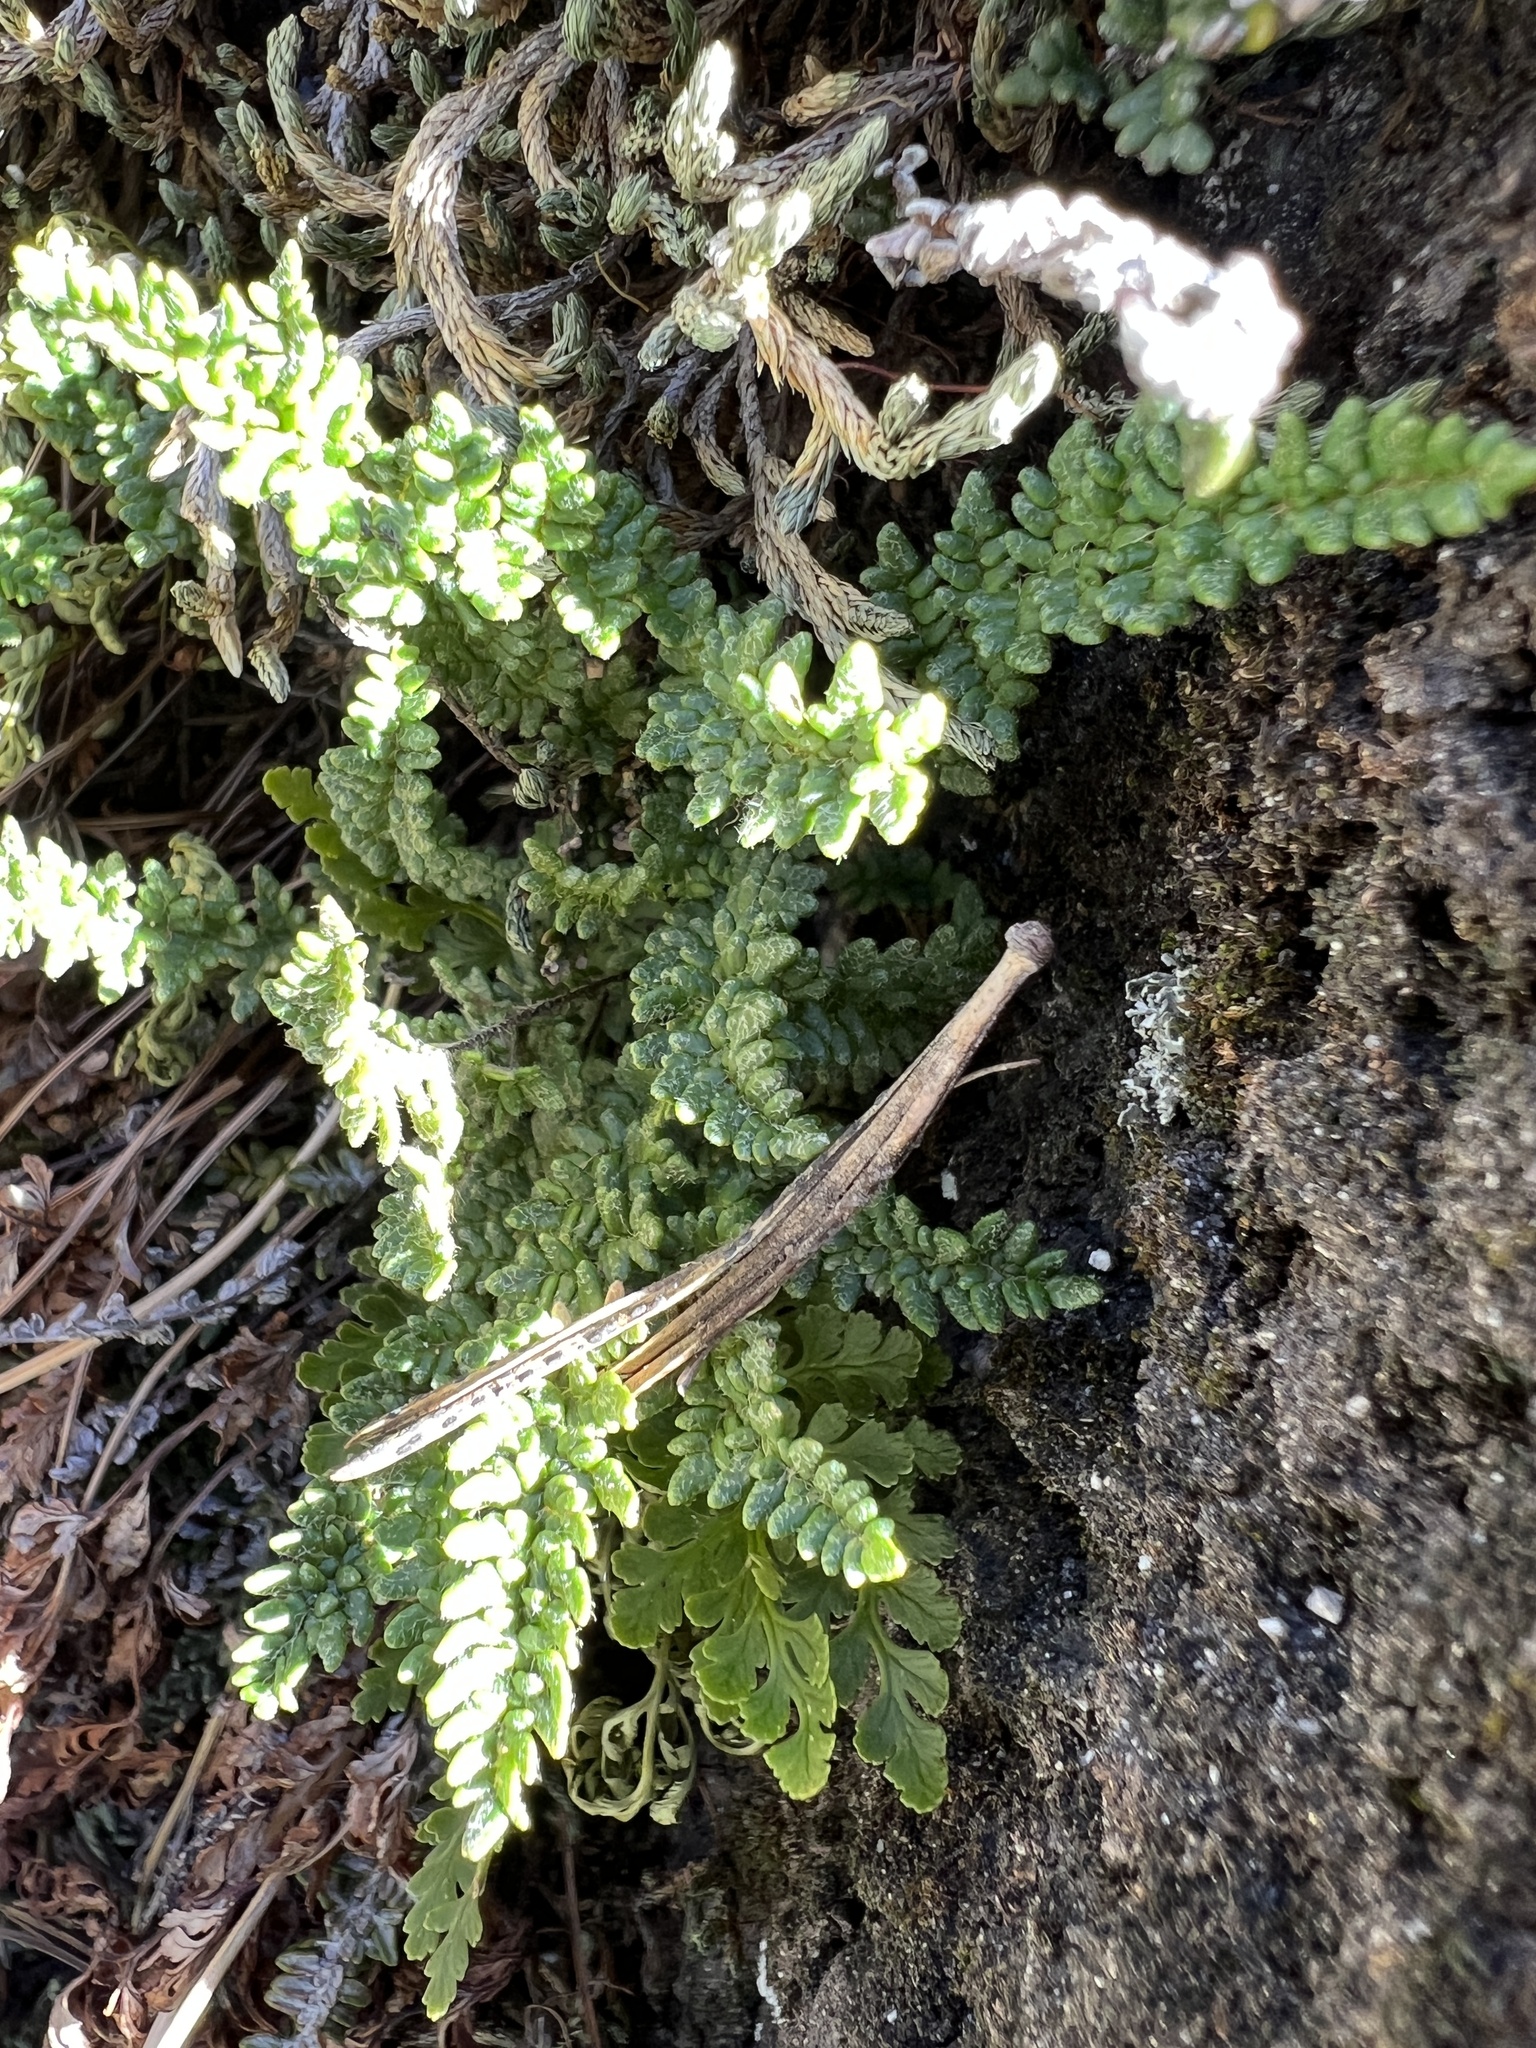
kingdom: Plantae
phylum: Tracheophyta
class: Polypodiopsida
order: Polypodiales
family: Pteridaceae
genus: Myriopteris
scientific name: Myriopteris gracillima
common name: Lace fern
